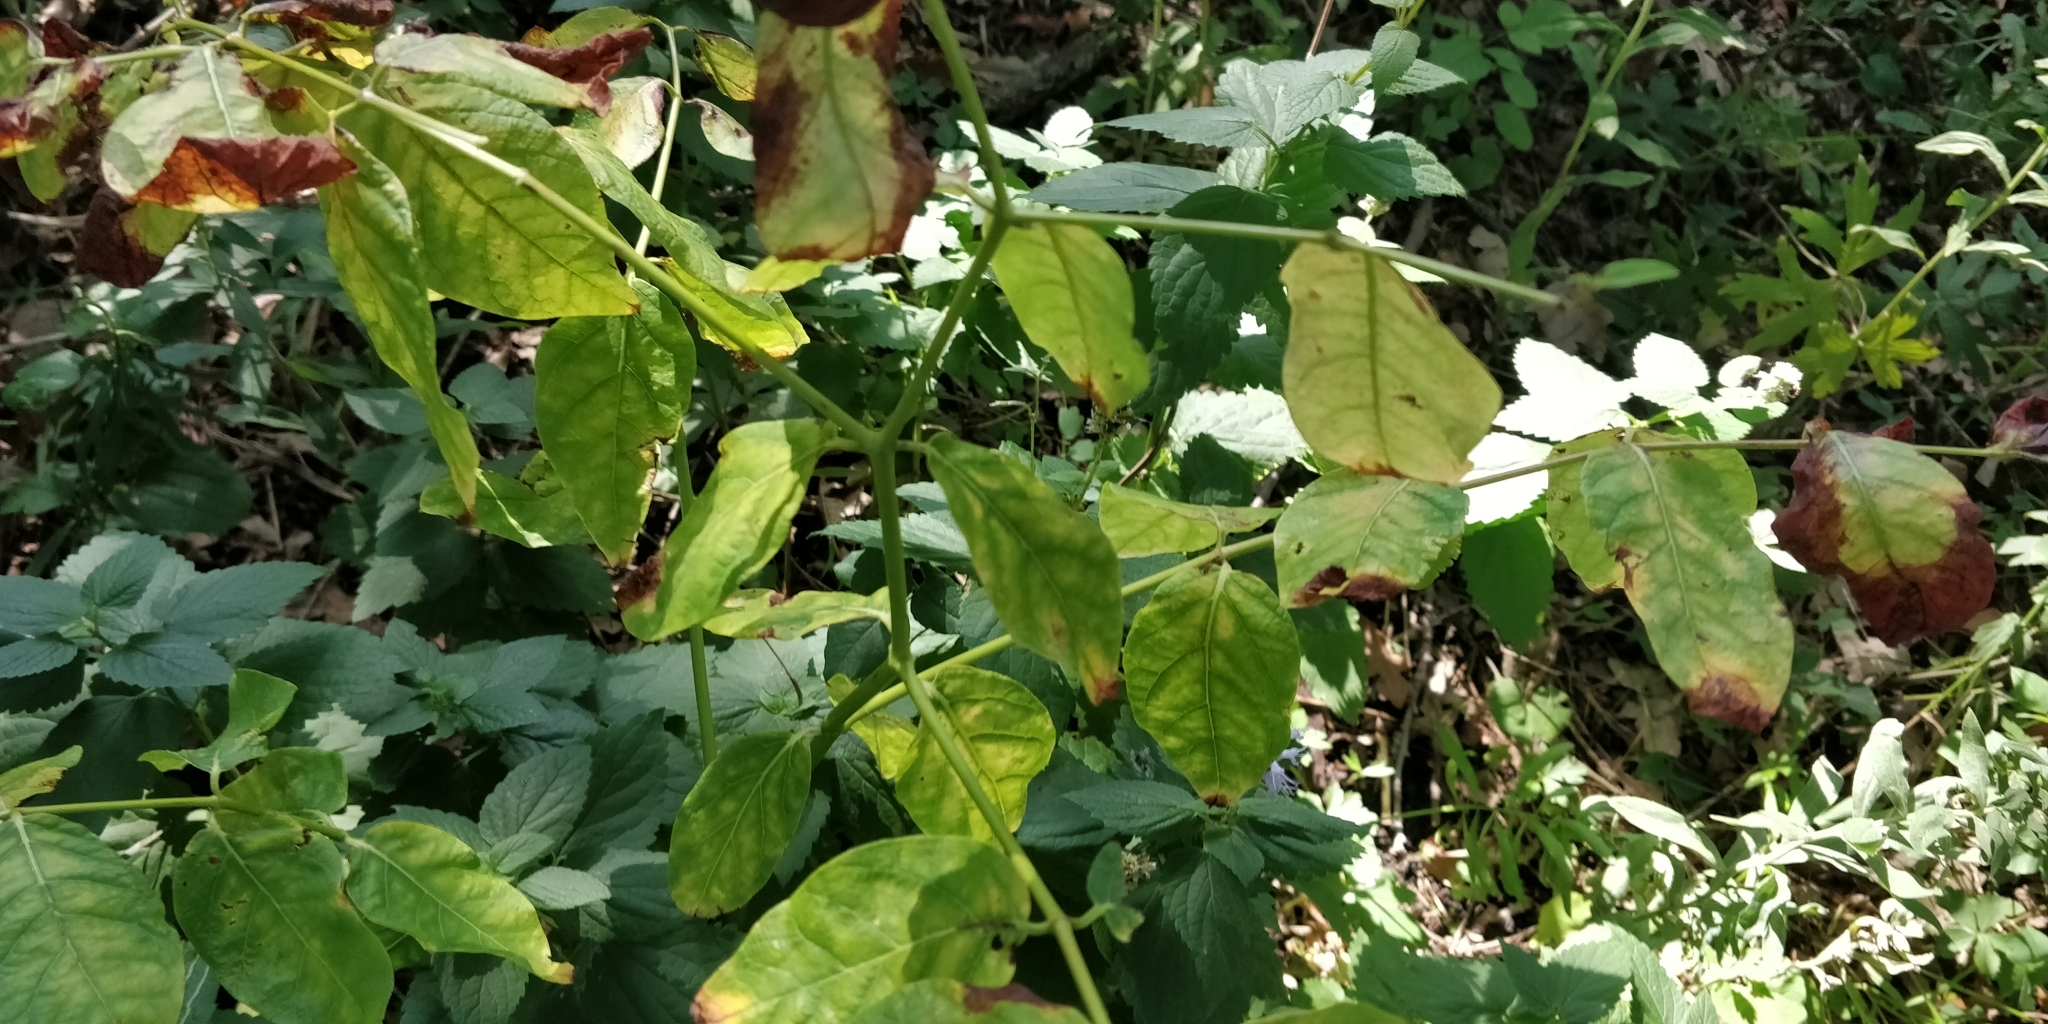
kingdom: Plantae
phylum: Tracheophyta
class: Magnoliopsida
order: Gentianales
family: Apocynaceae
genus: Apocynum
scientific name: Apocynum androsaemifolium
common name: Spreading dogbane
